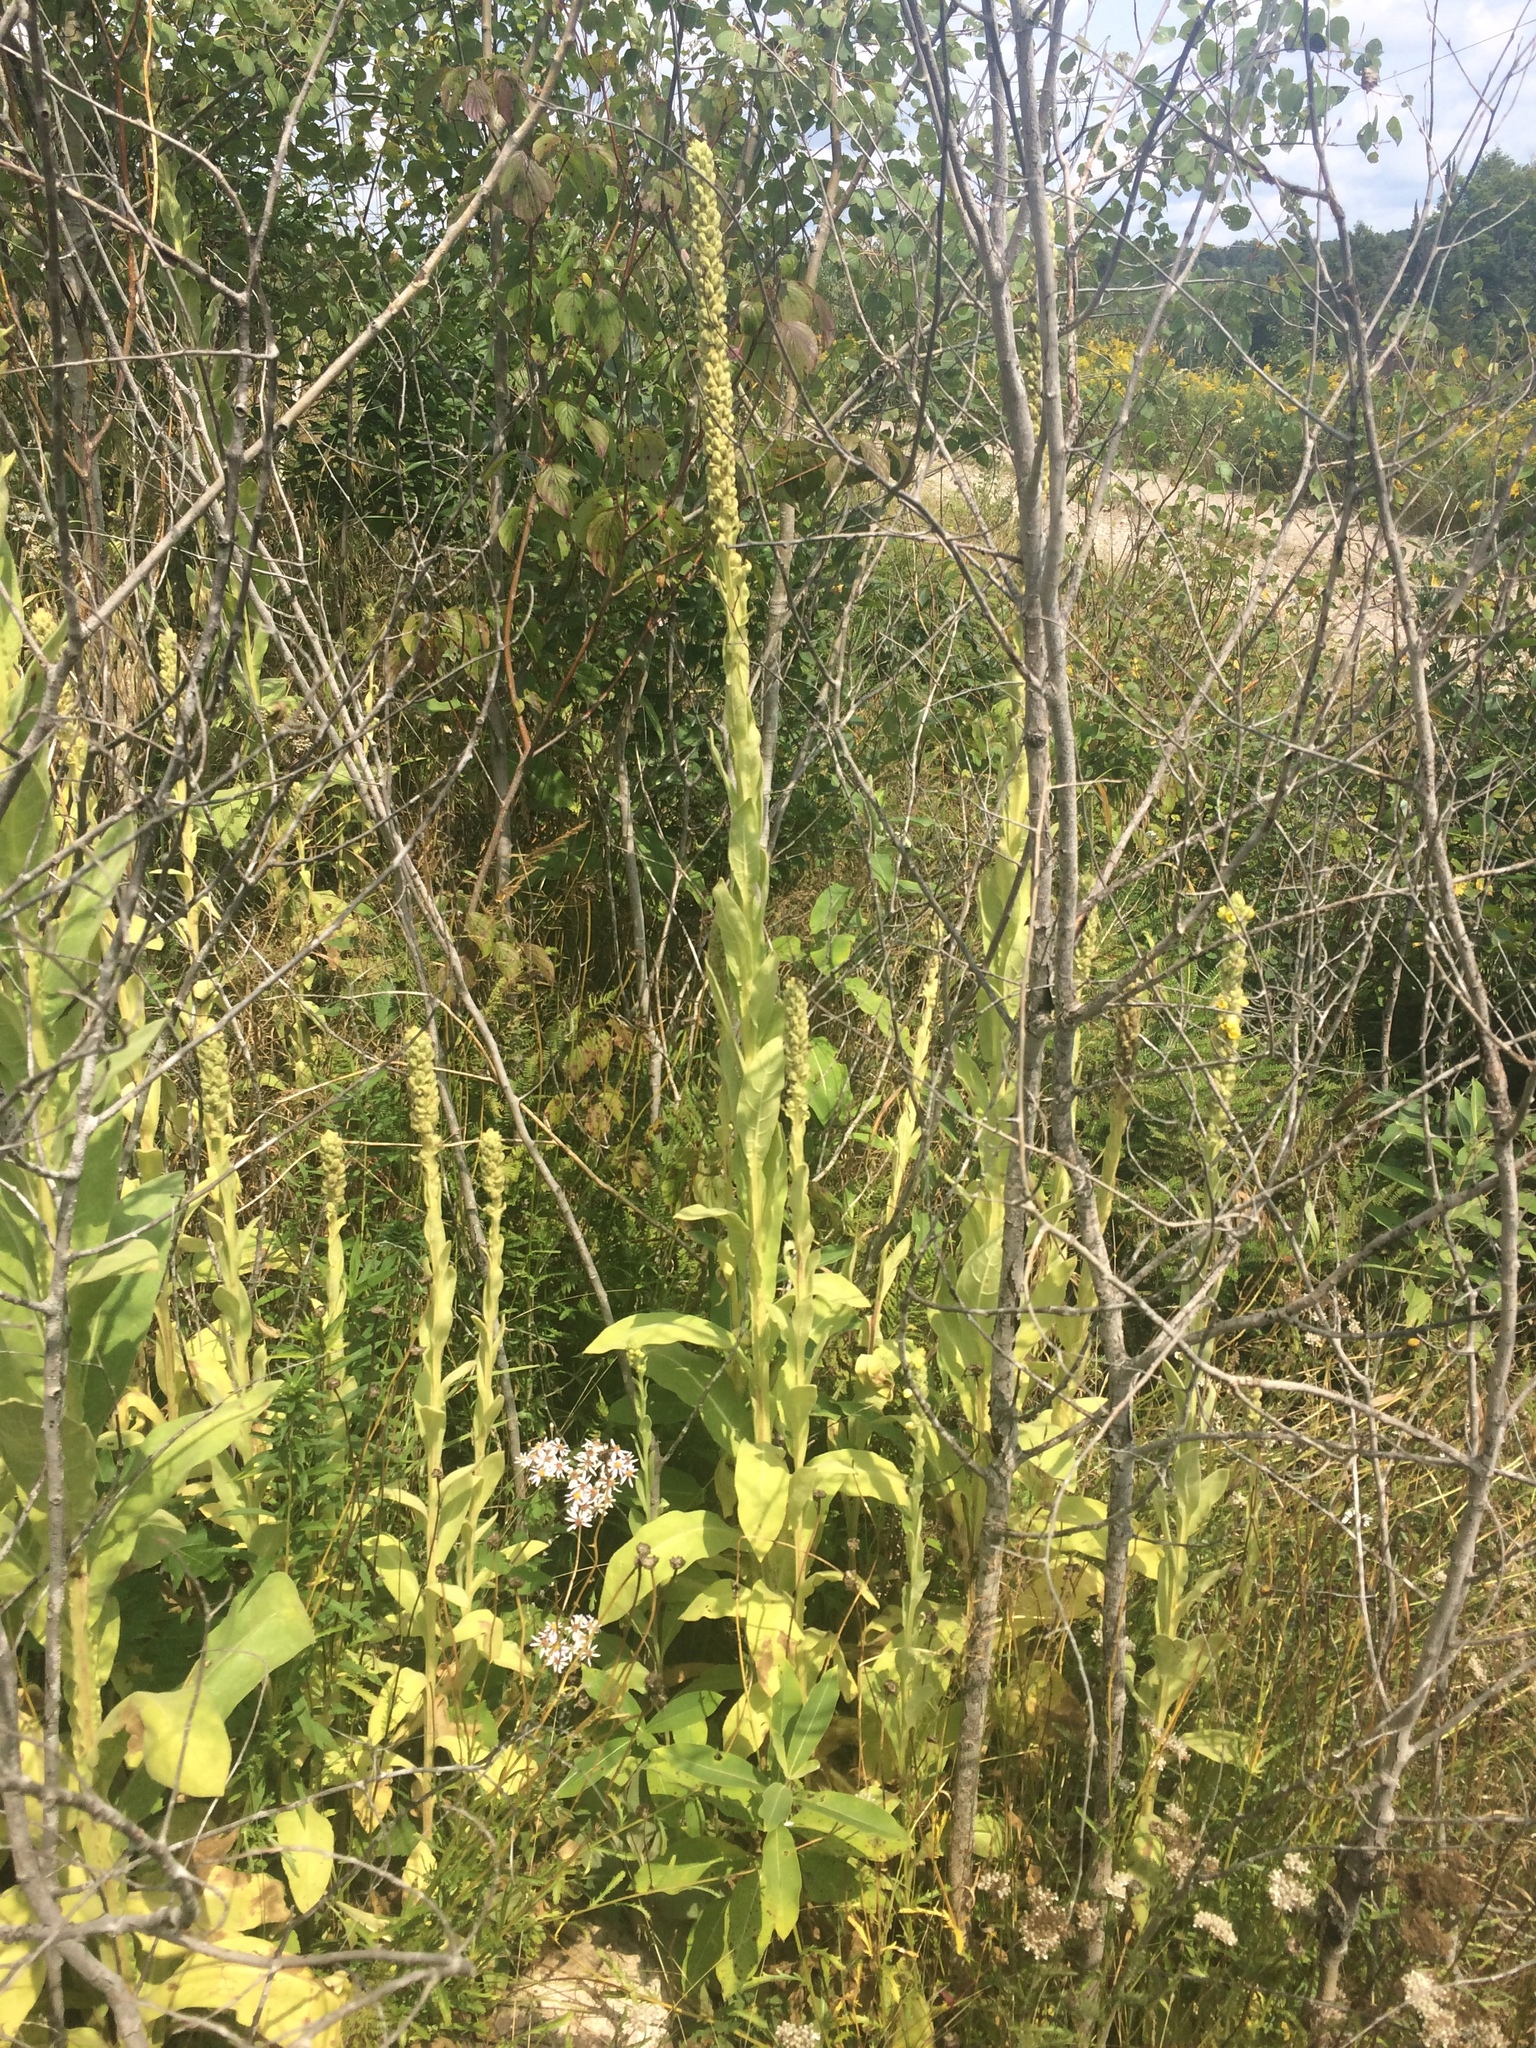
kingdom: Plantae
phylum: Tracheophyta
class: Magnoliopsida
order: Lamiales
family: Scrophulariaceae
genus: Verbascum
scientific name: Verbascum thapsus
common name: Common mullein
